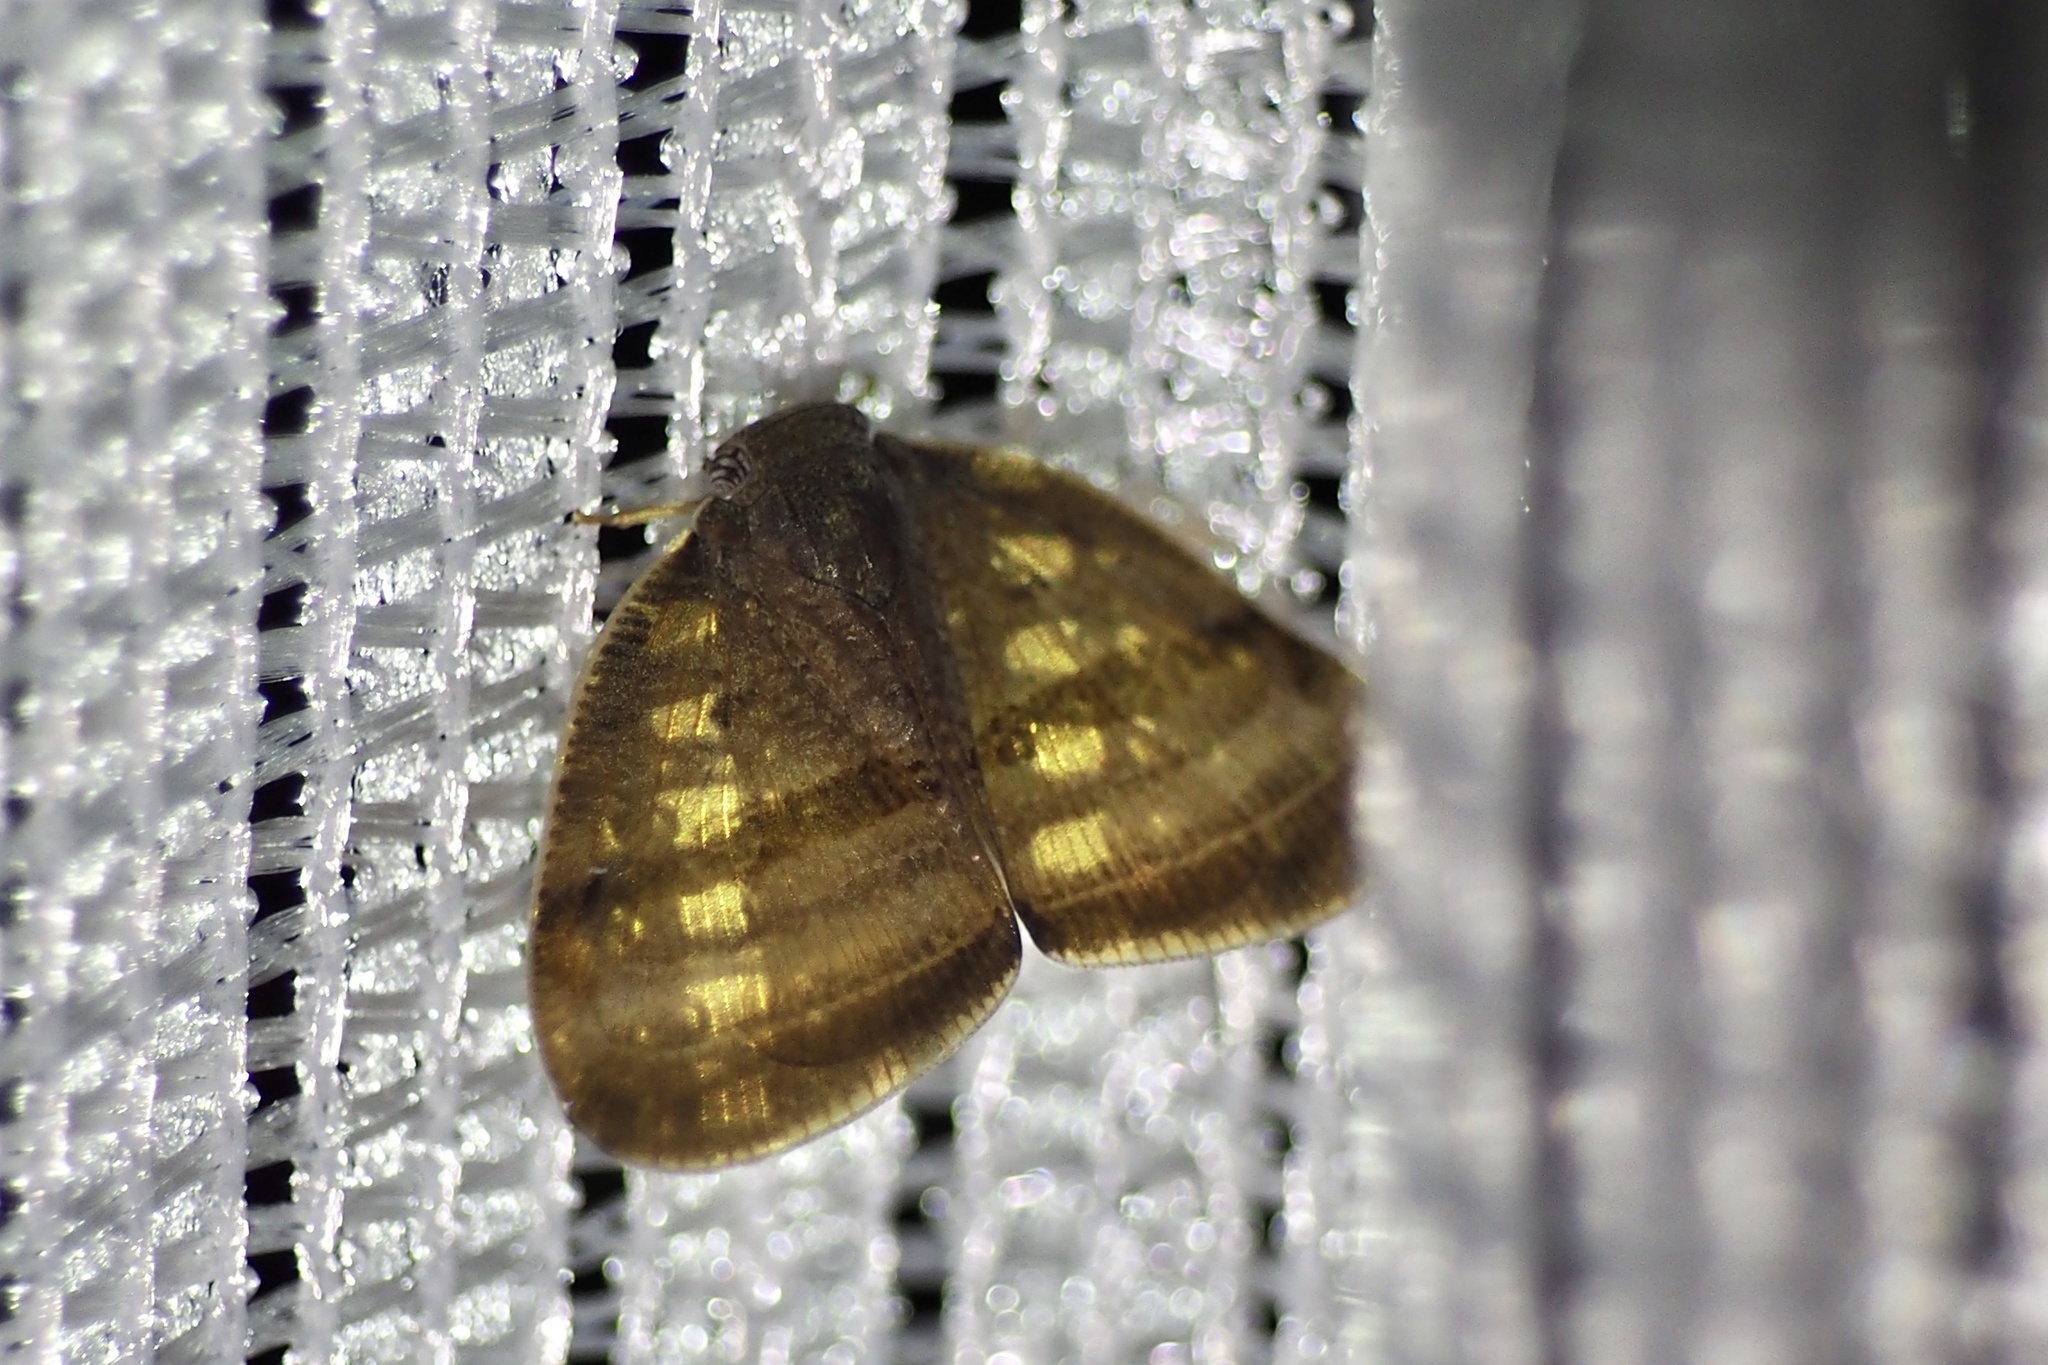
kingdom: Animalia
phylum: Arthropoda
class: Insecta
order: Hemiptera
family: Ricaniidae
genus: Ricania
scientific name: Ricania taeniata
